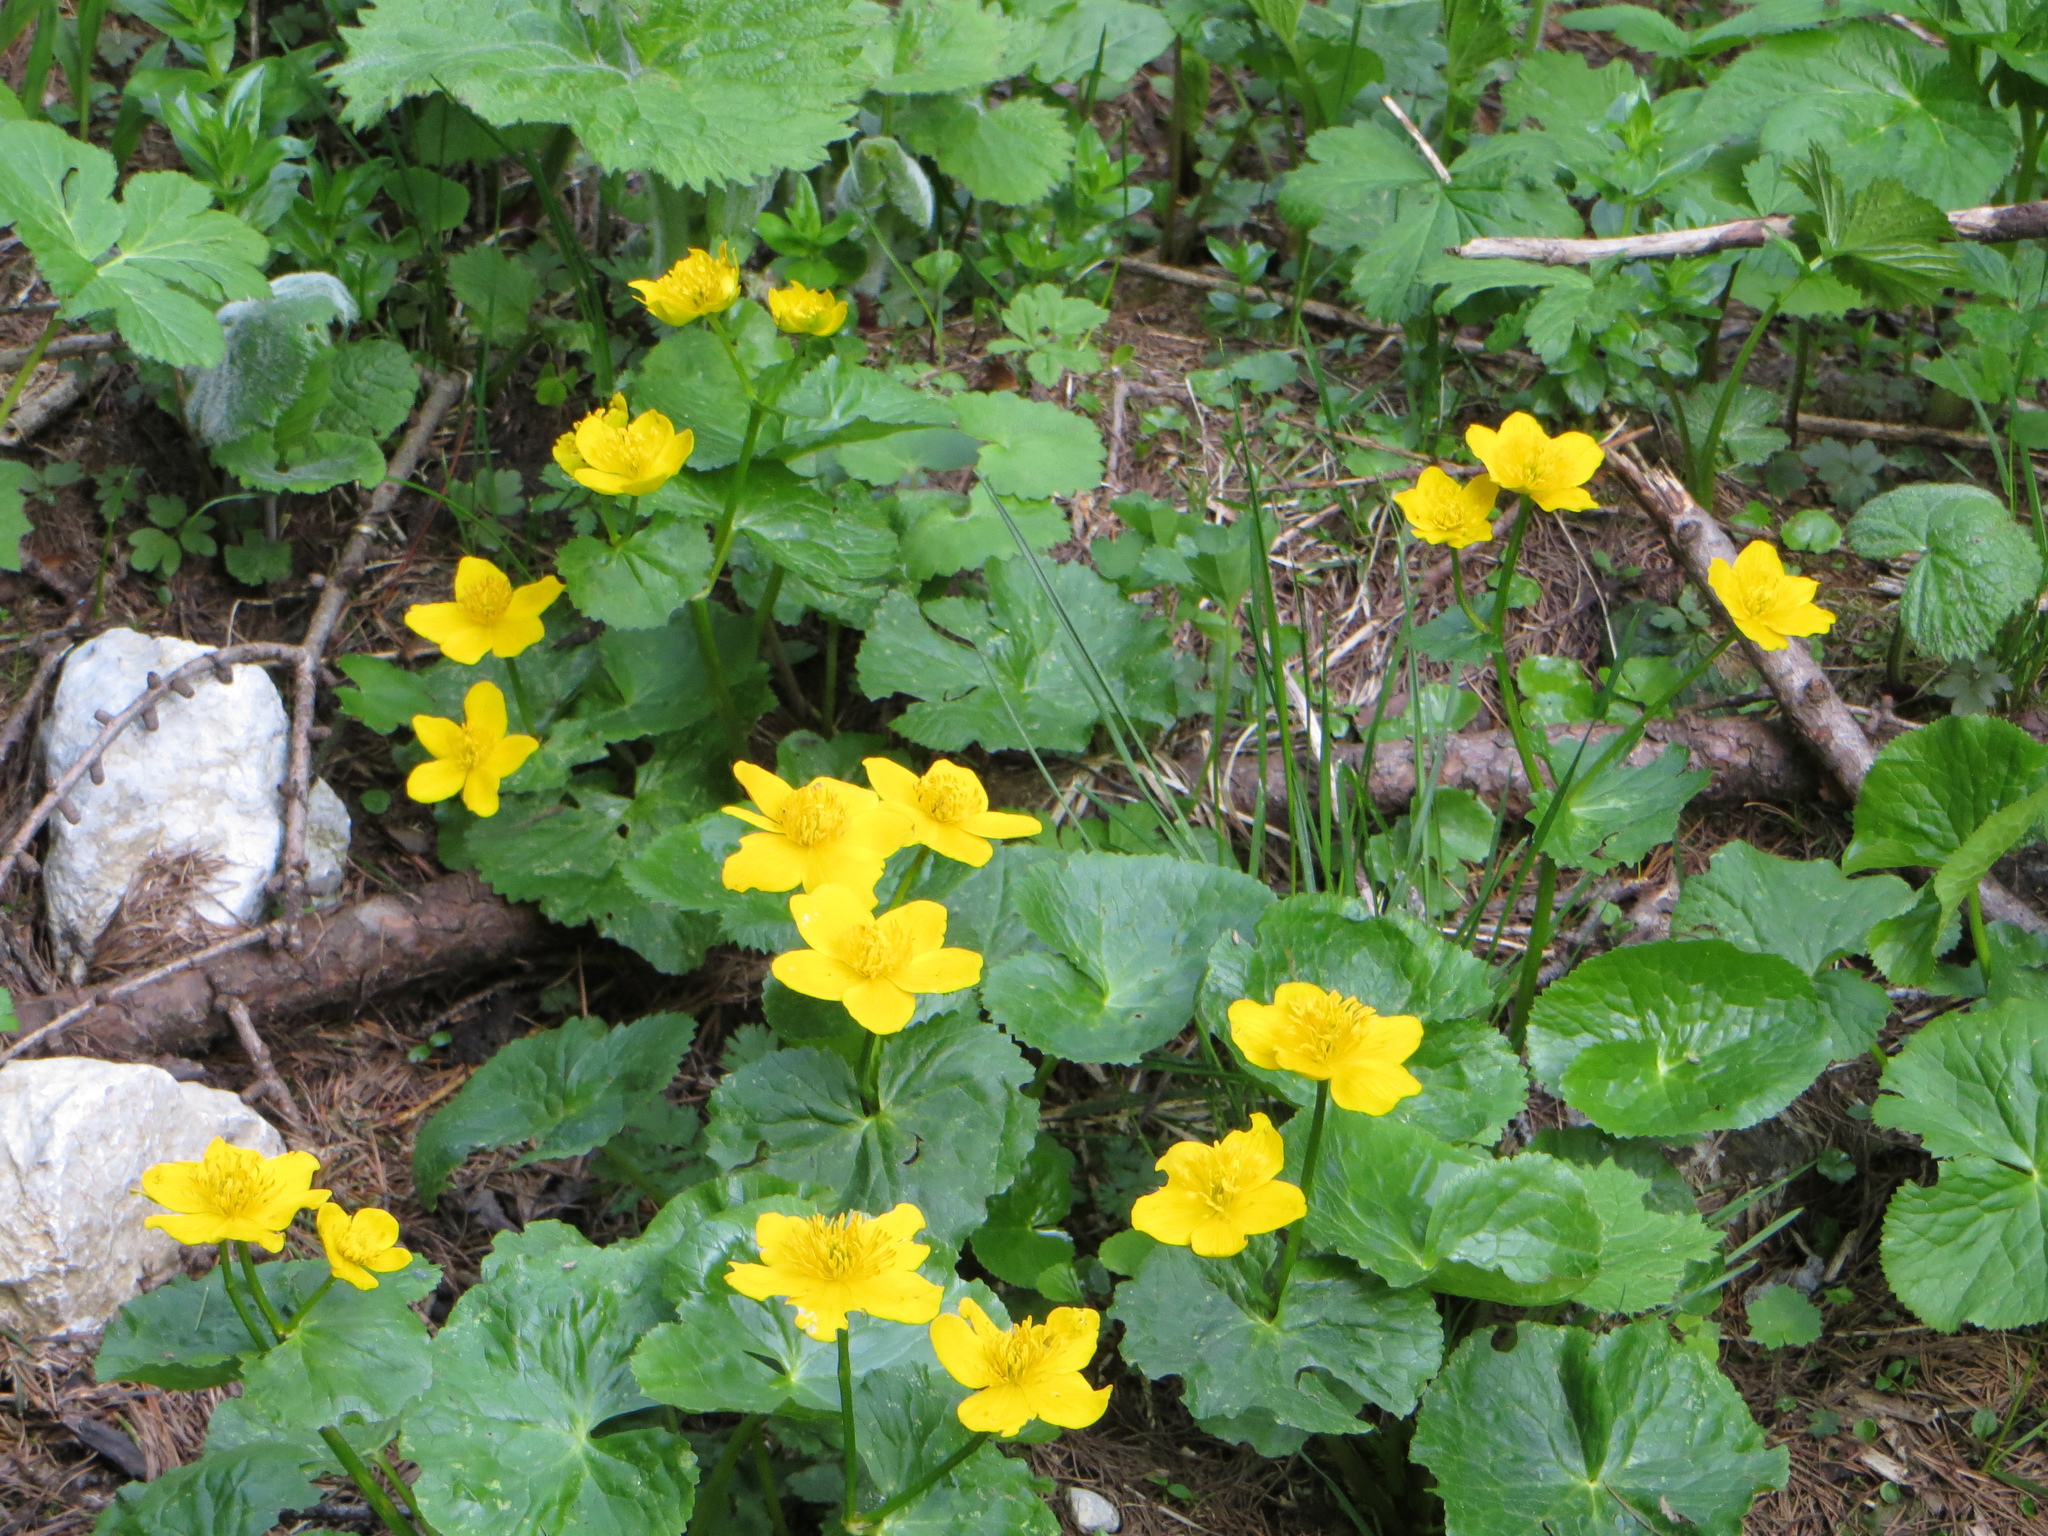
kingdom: Plantae
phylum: Tracheophyta
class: Magnoliopsida
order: Ranunculales
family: Ranunculaceae
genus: Caltha
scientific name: Caltha palustris
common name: Marsh marigold
